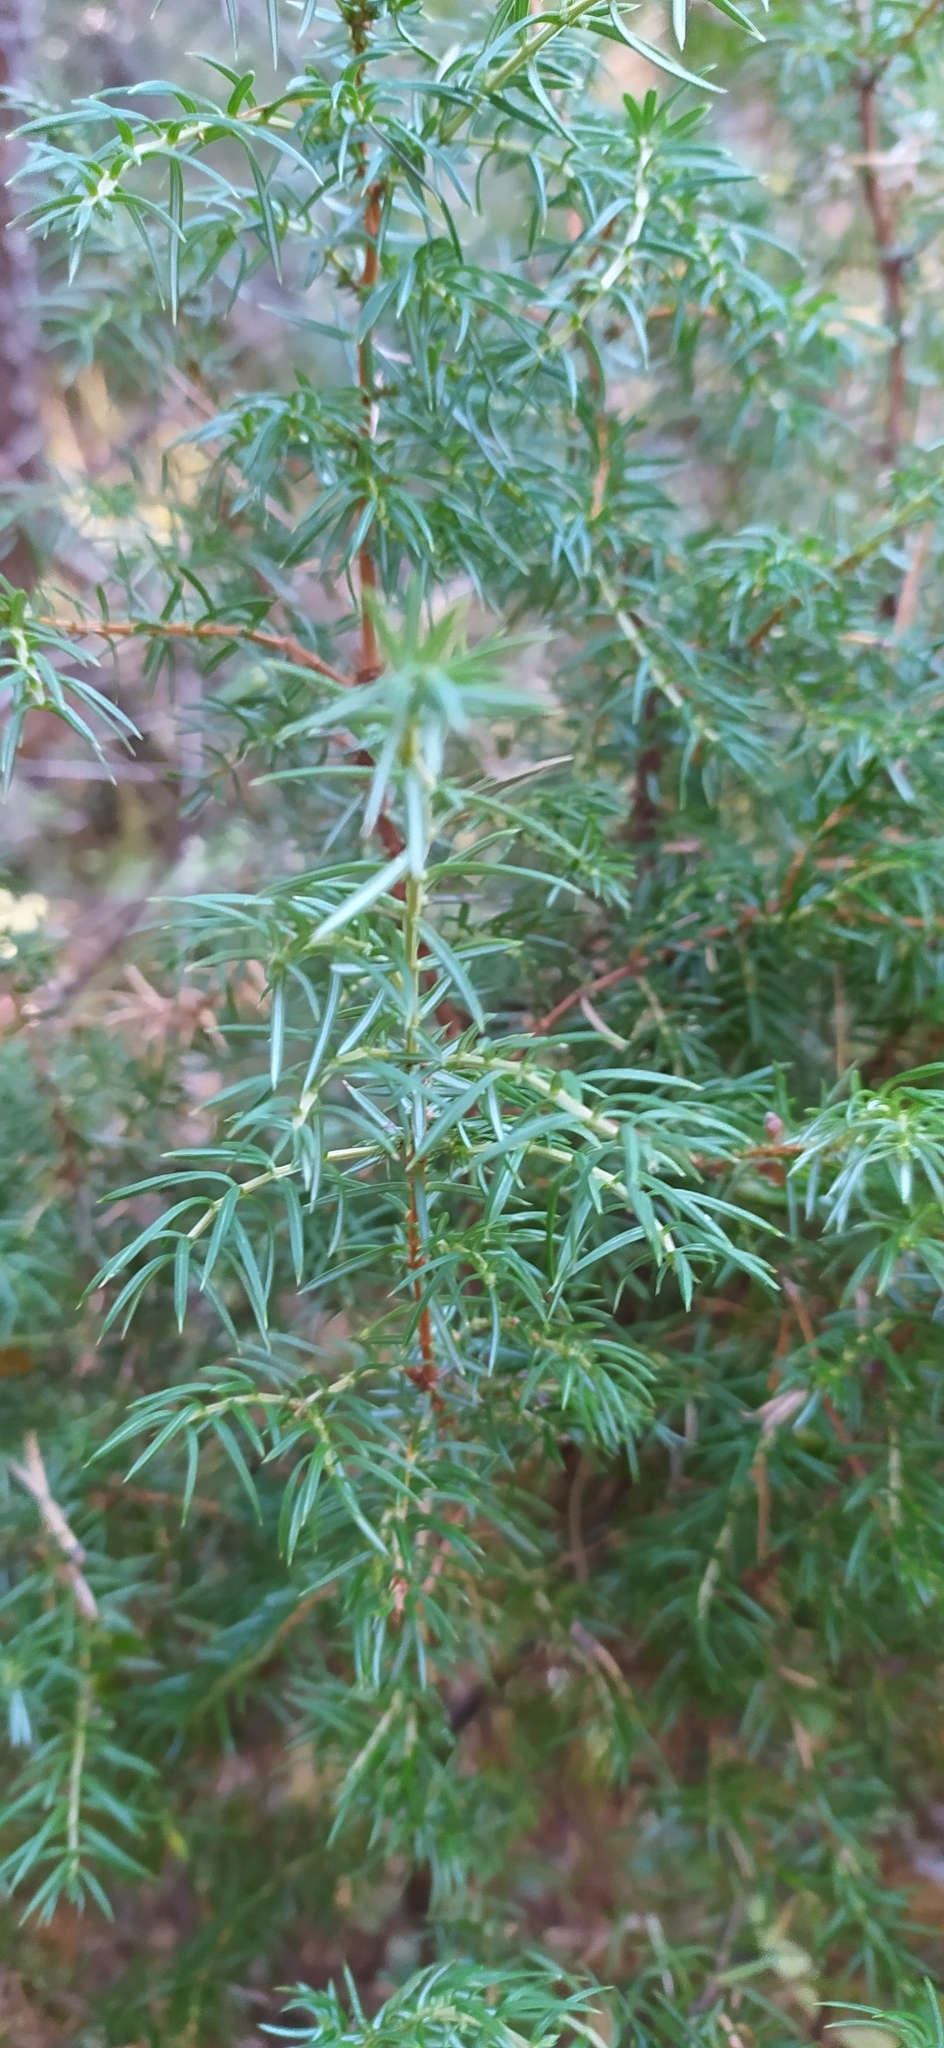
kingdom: Plantae
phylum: Tracheophyta
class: Pinopsida
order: Pinales
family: Cupressaceae
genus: Juniperus
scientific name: Juniperus communis
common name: Common juniper
